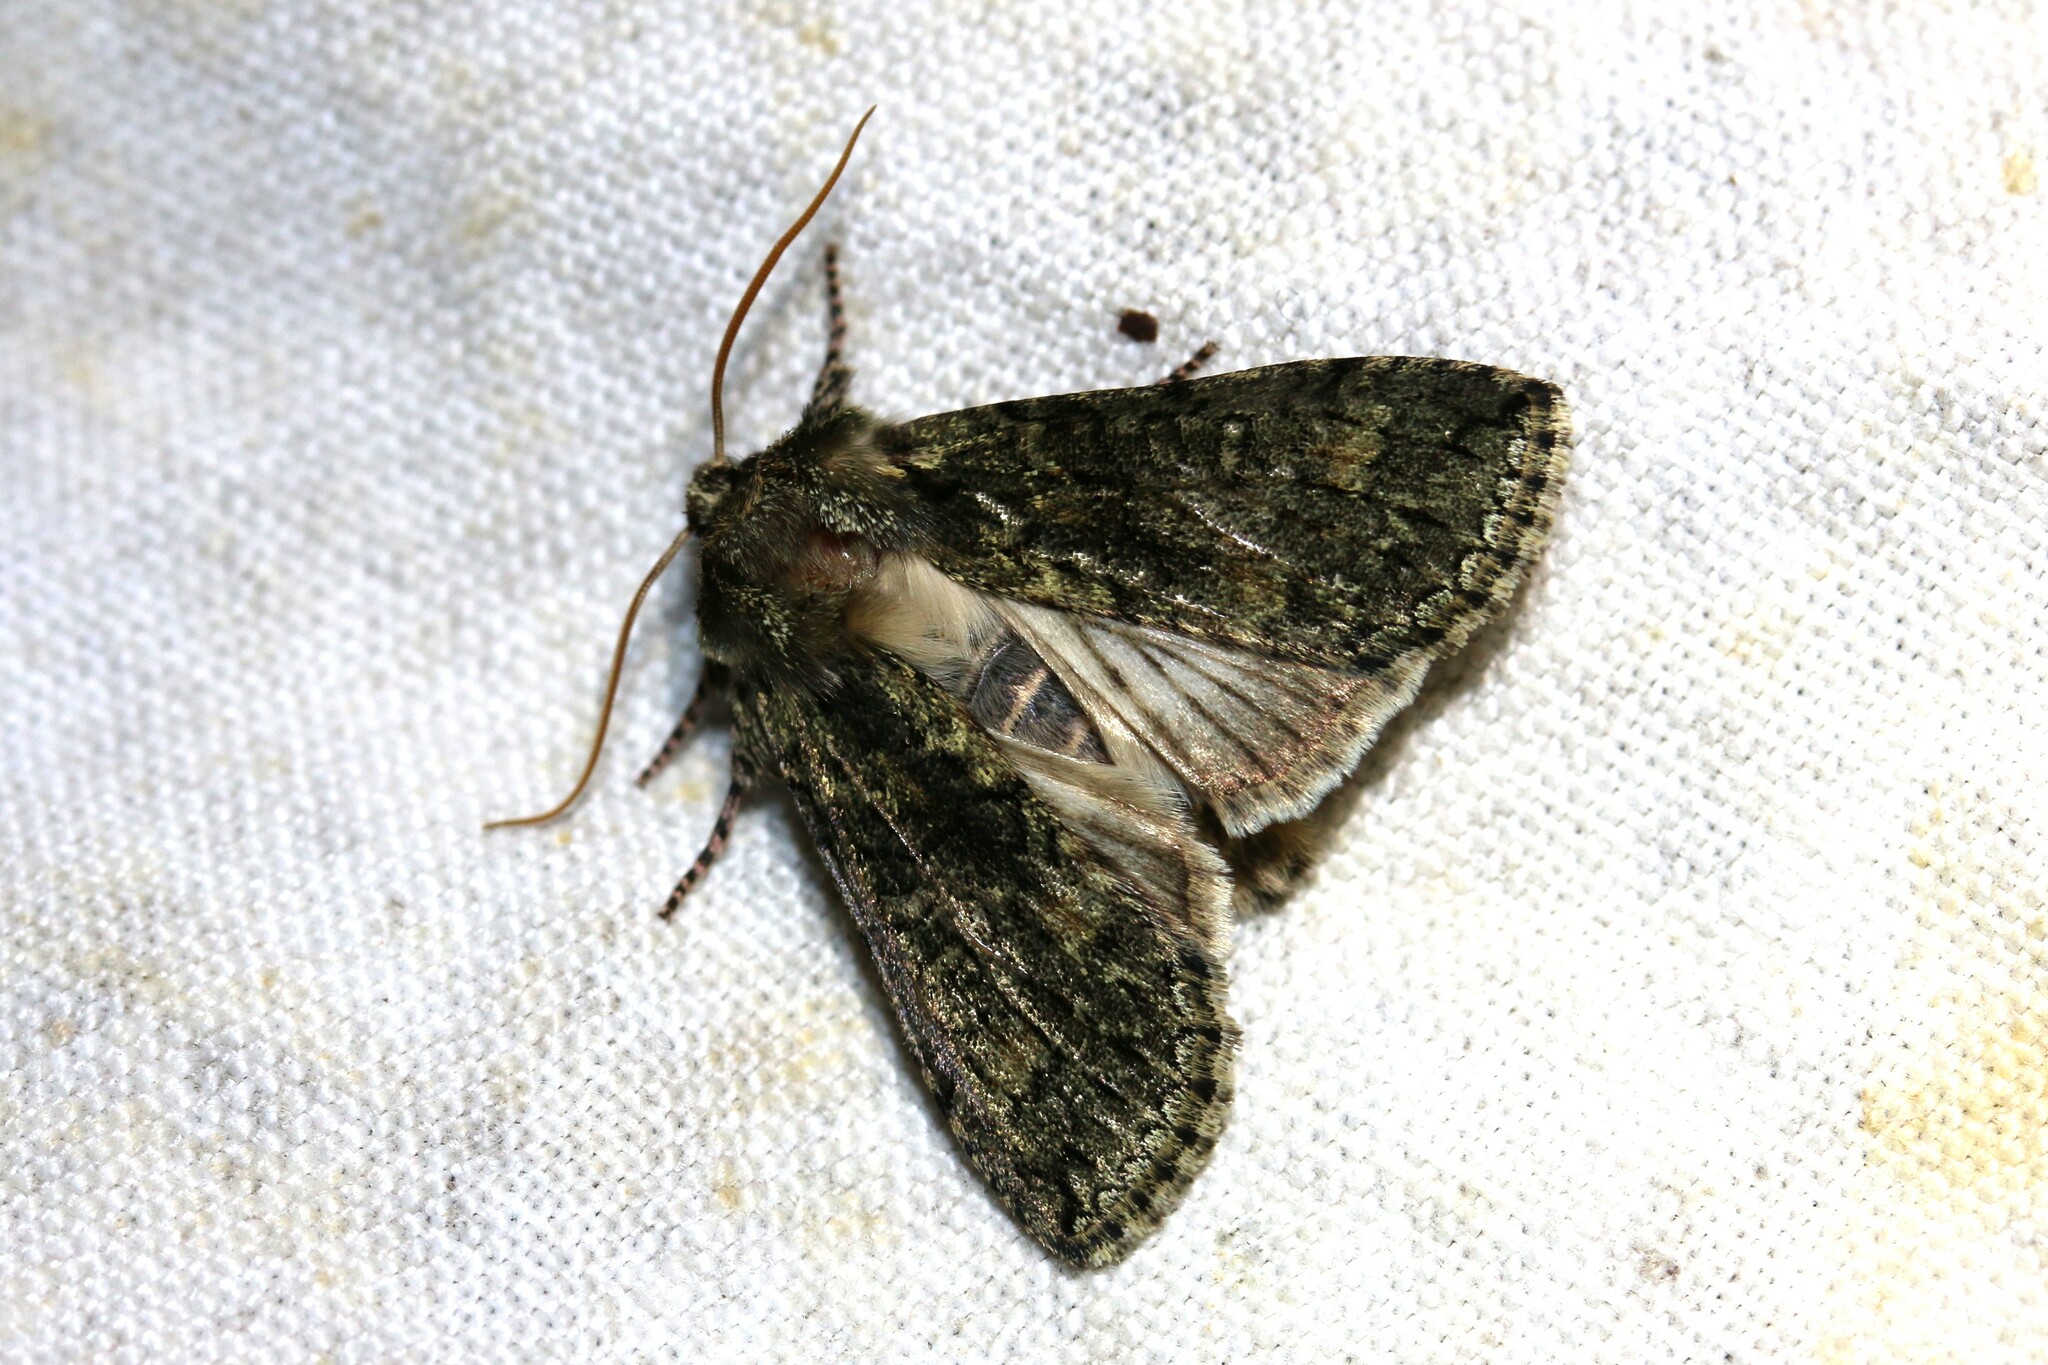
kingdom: Animalia
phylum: Arthropoda
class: Insecta
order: Lepidoptera
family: Drepanidae
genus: Polyploca
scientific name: Polyploca ridens
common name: Frosted green
